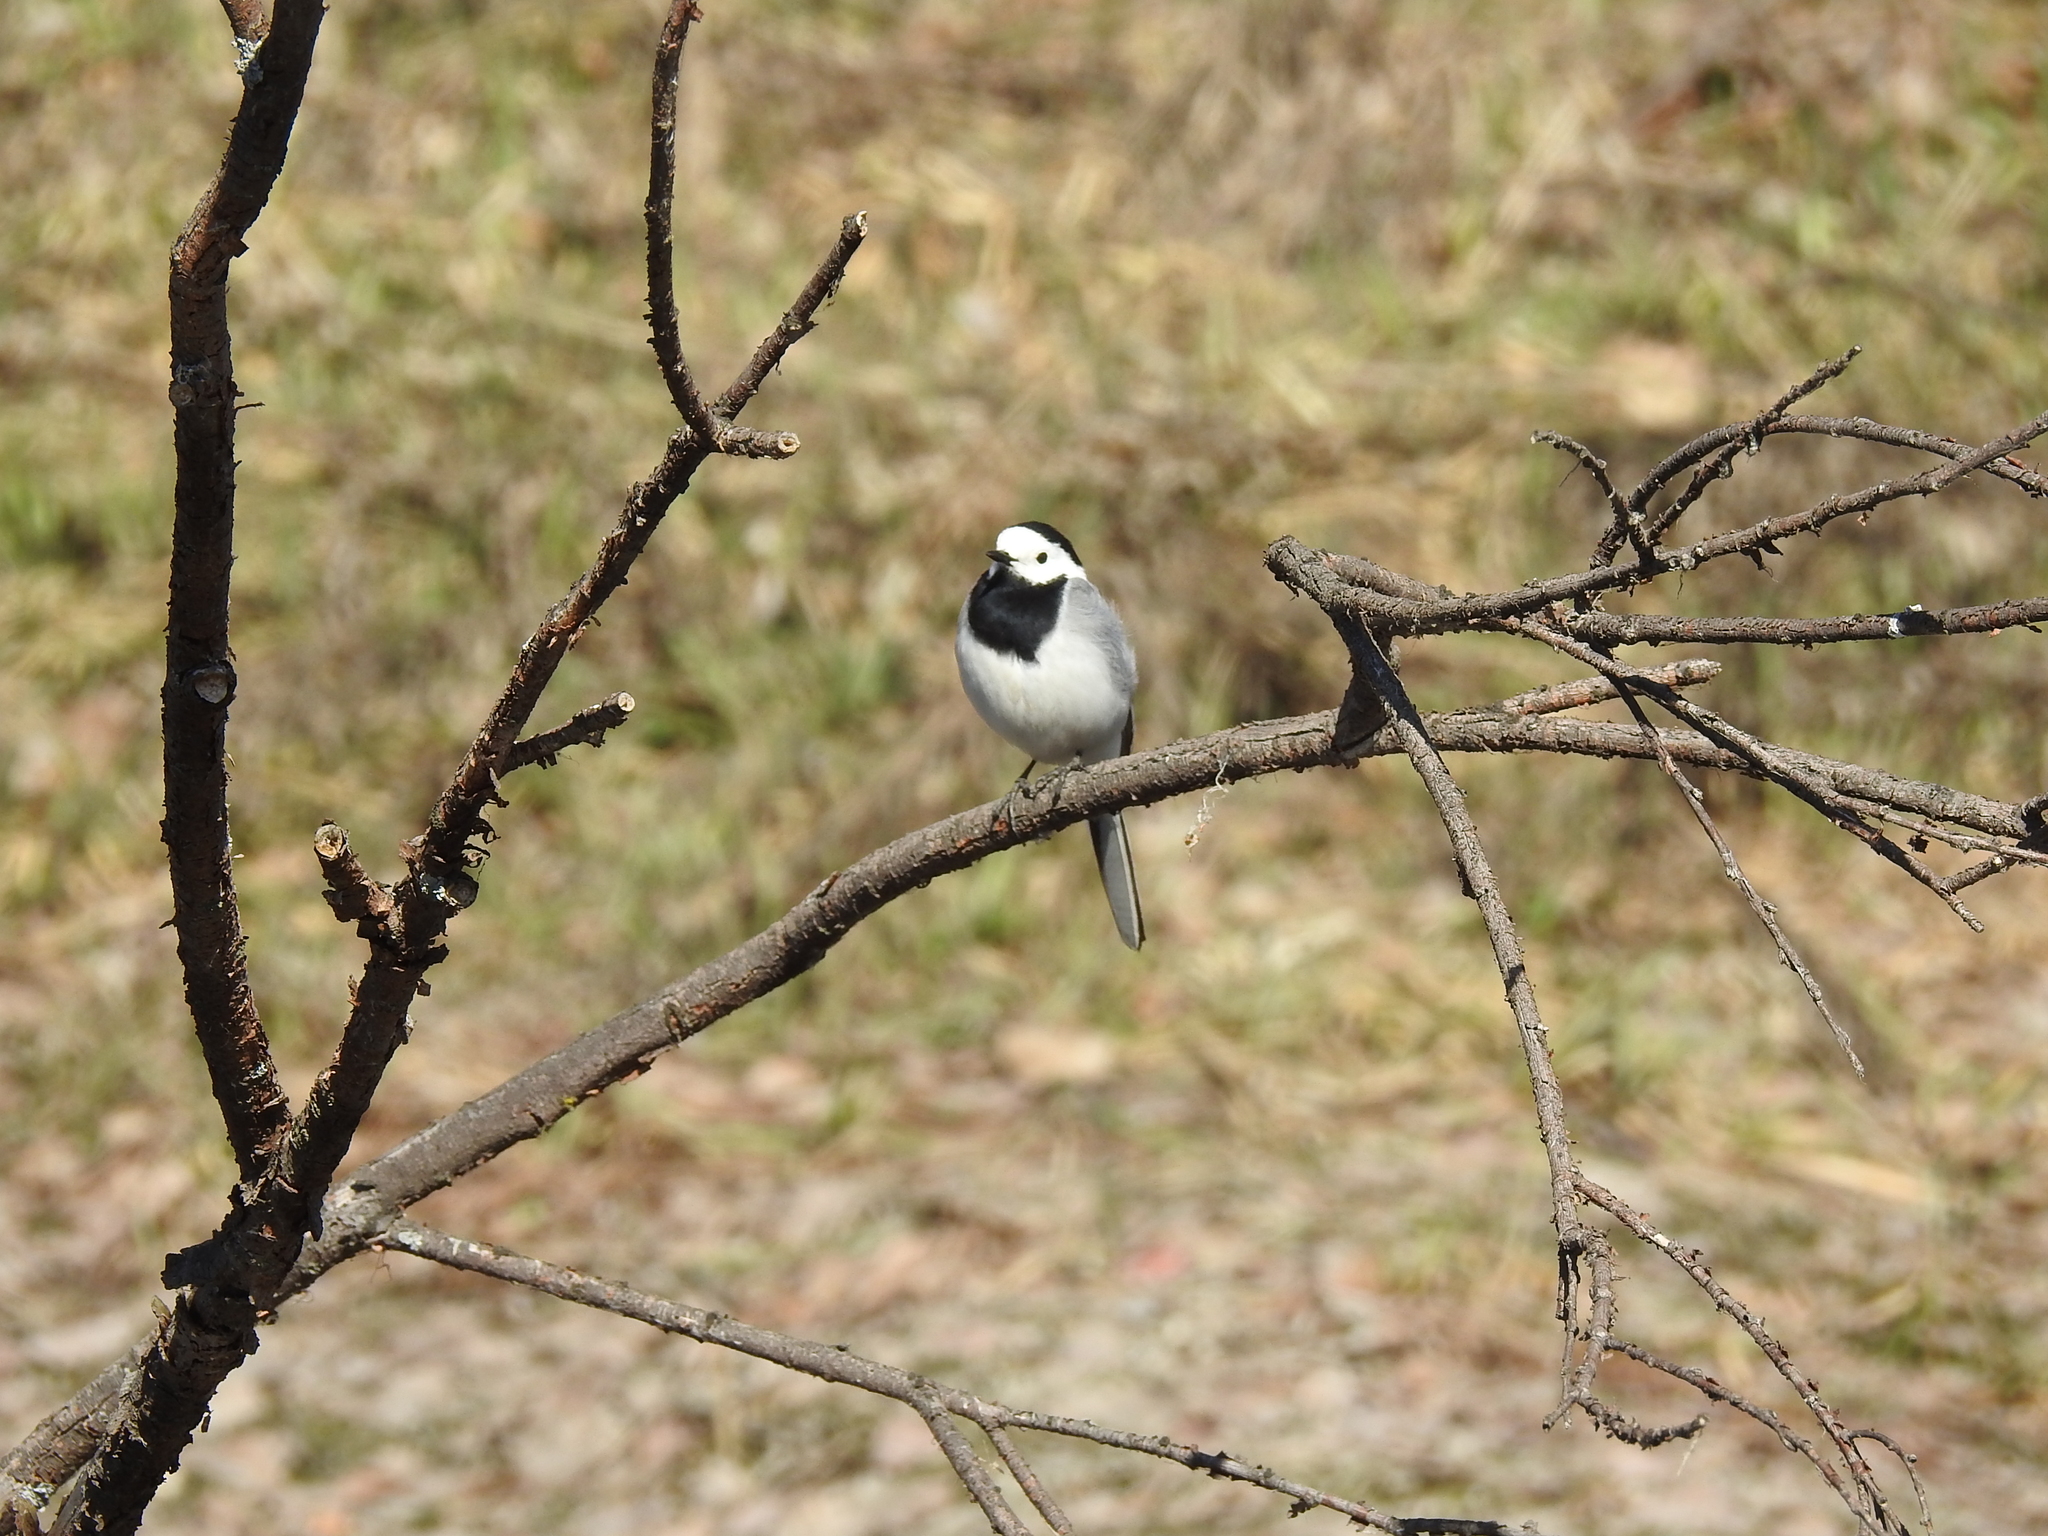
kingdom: Animalia
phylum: Chordata
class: Aves
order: Passeriformes
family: Motacillidae
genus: Motacilla
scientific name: Motacilla alba
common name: White wagtail
